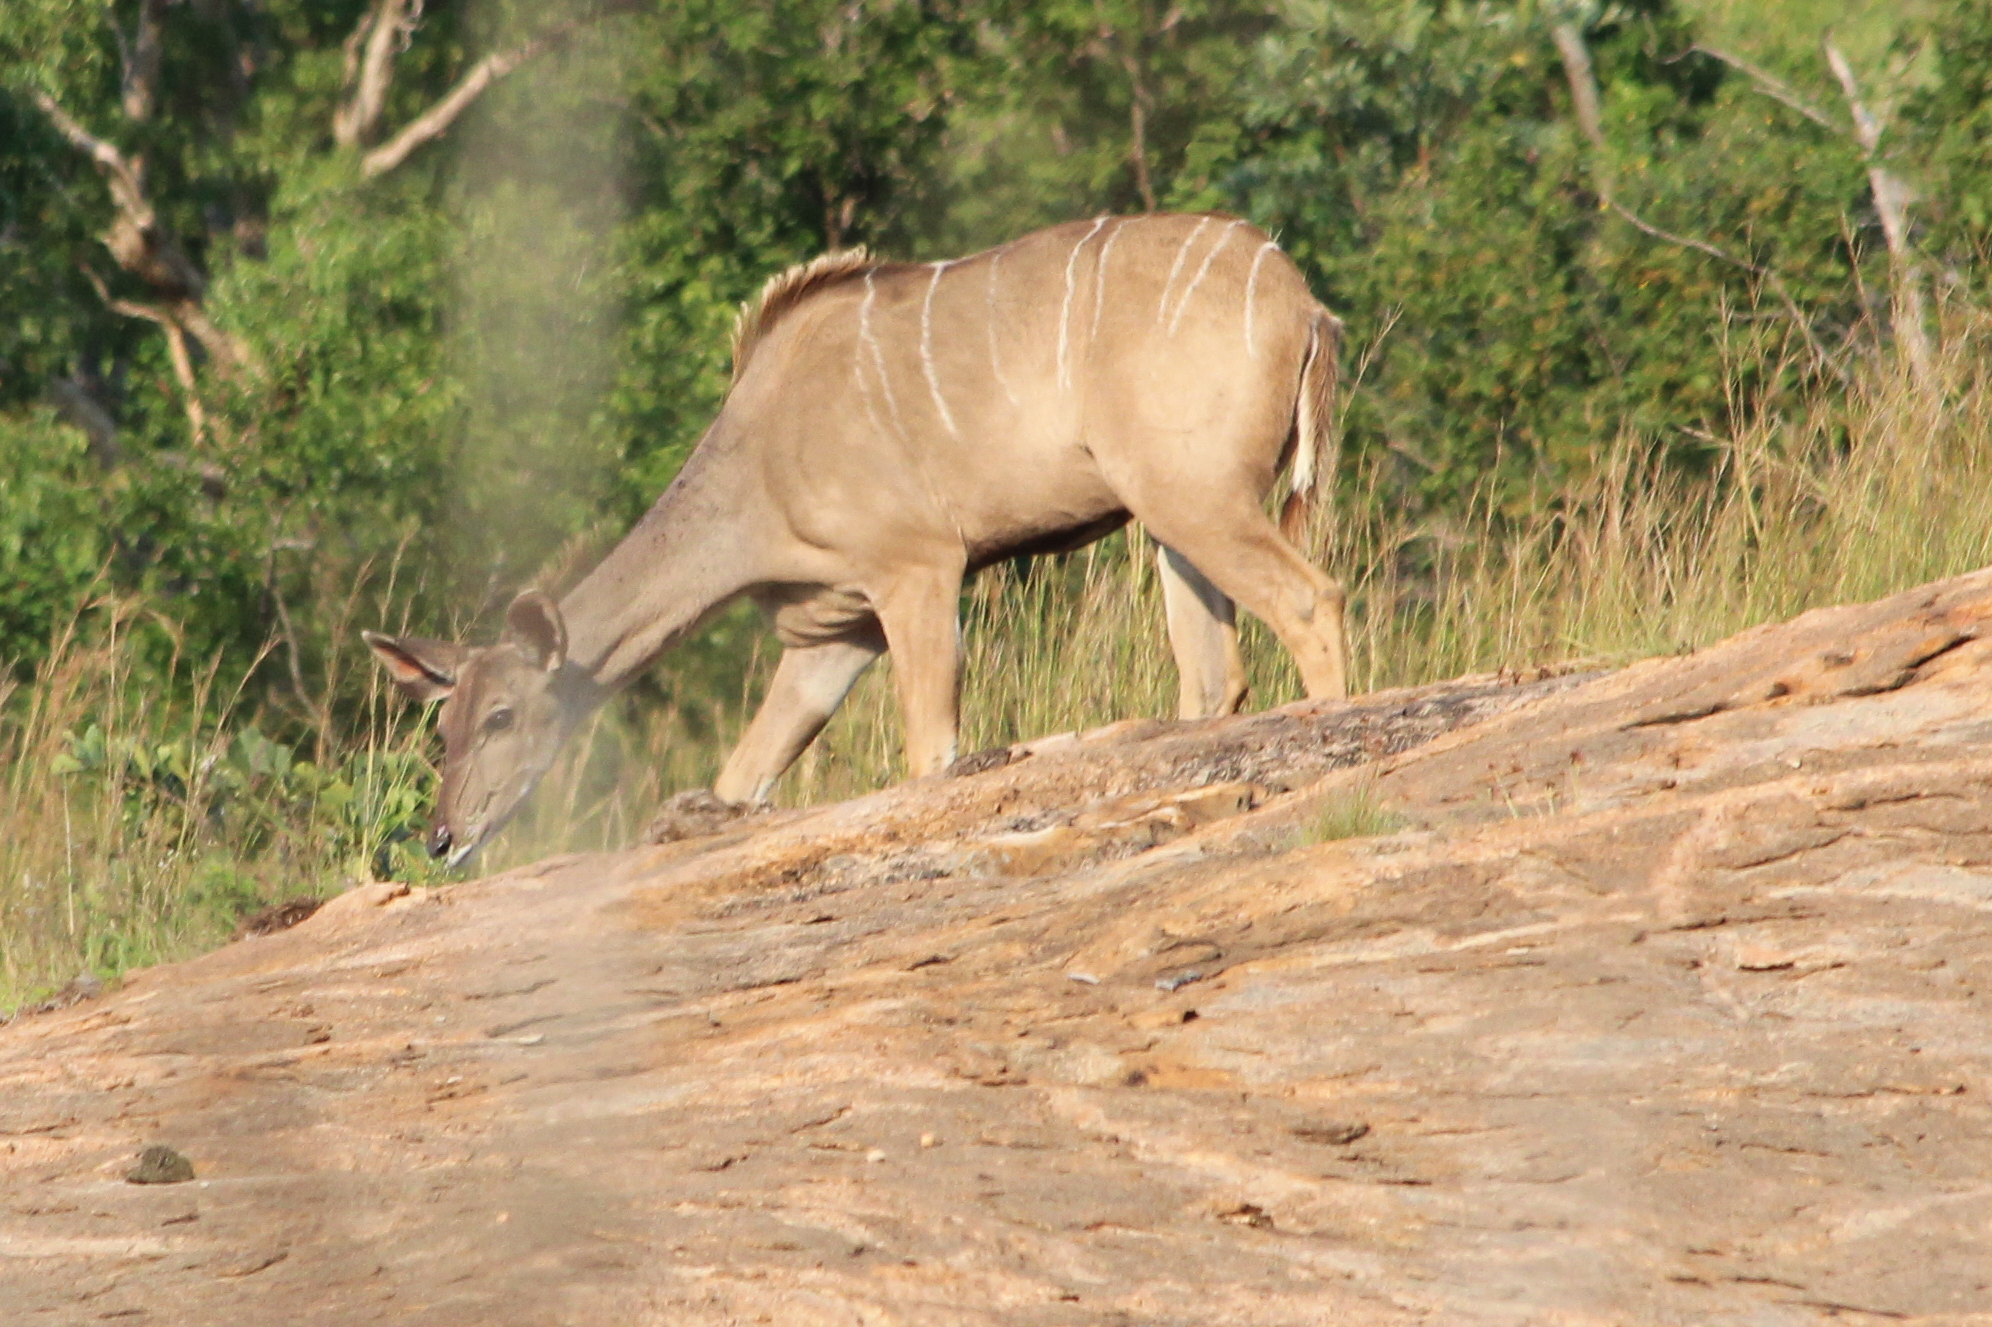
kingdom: Animalia
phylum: Chordata
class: Mammalia
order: Artiodactyla
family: Bovidae
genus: Tragelaphus
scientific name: Tragelaphus strepsiceros
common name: Greater kudu
